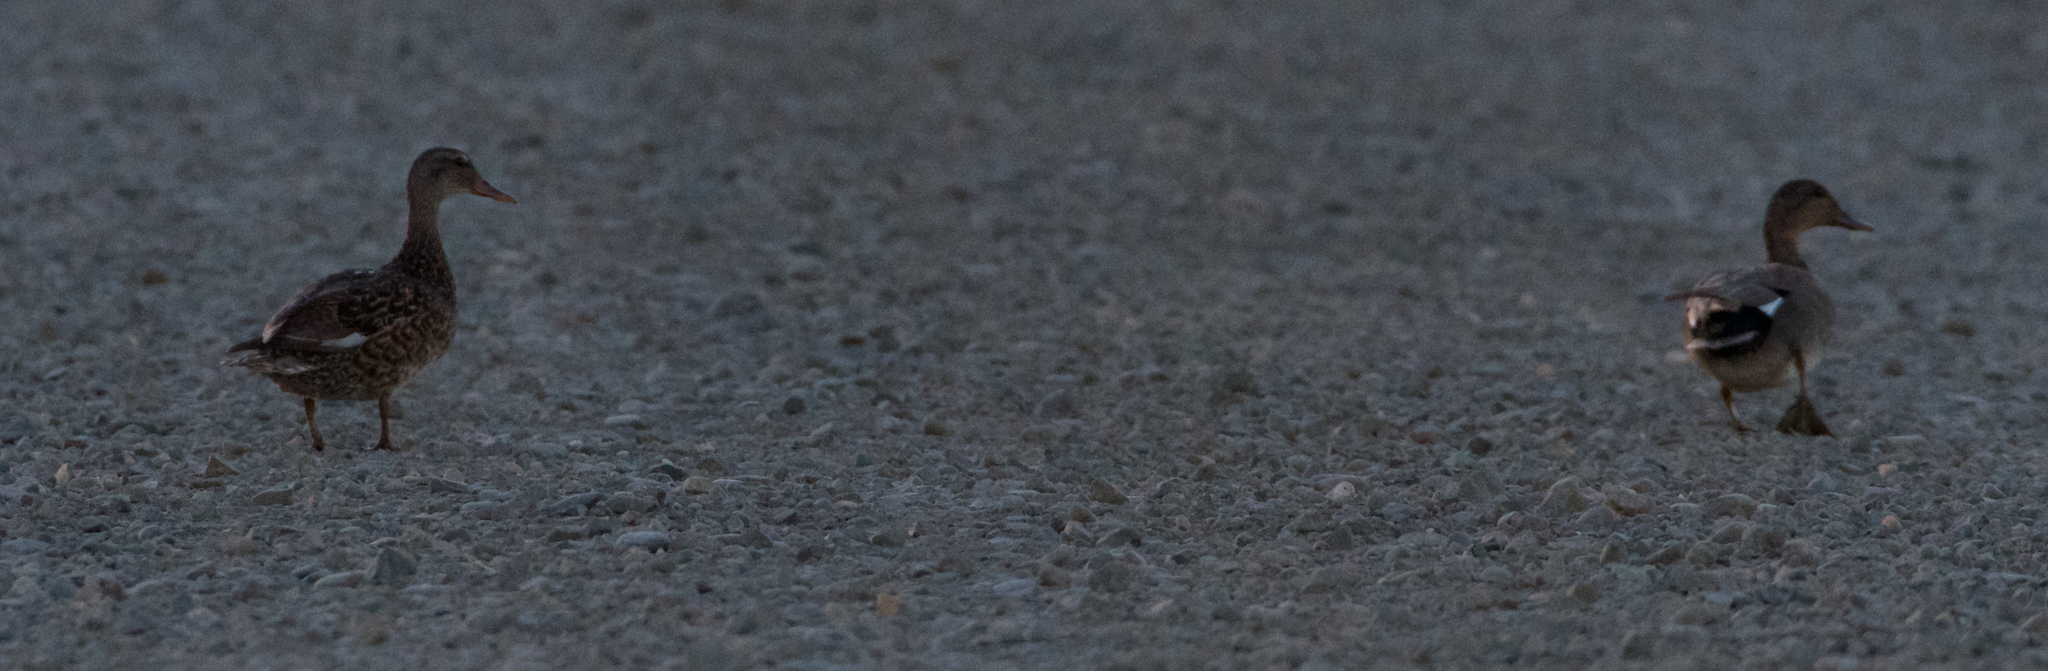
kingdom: Animalia
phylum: Chordata
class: Aves
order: Anseriformes
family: Anatidae
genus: Anas
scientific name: Anas platyrhynchos
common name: Mallard
